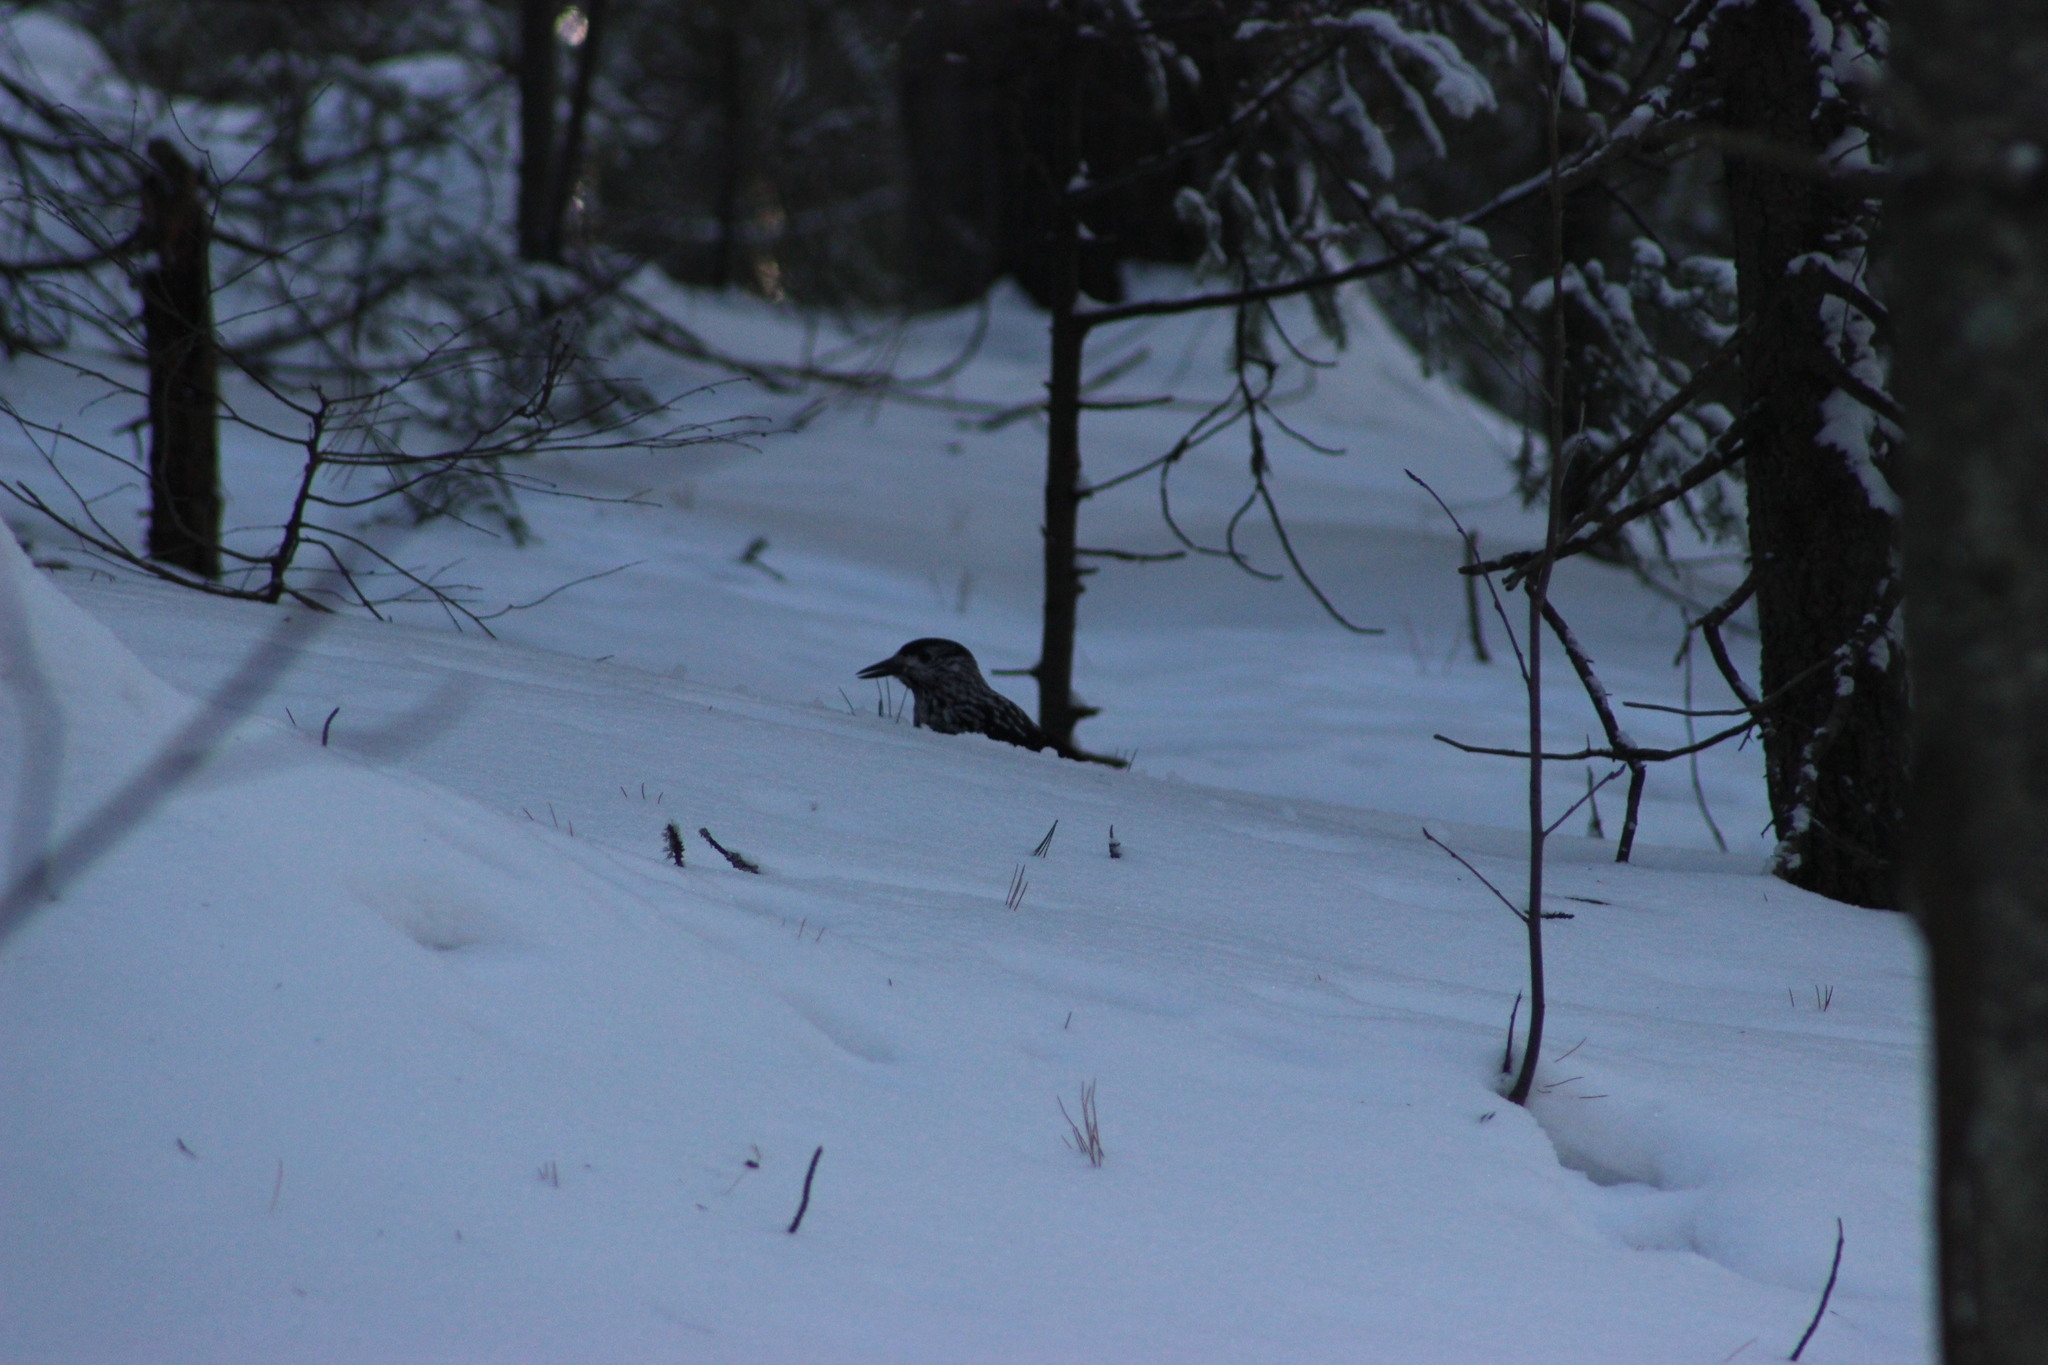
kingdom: Animalia
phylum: Chordata
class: Aves
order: Passeriformes
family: Corvidae
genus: Nucifraga
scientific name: Nucifraga caryocatactes
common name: Spotted nutcracker
